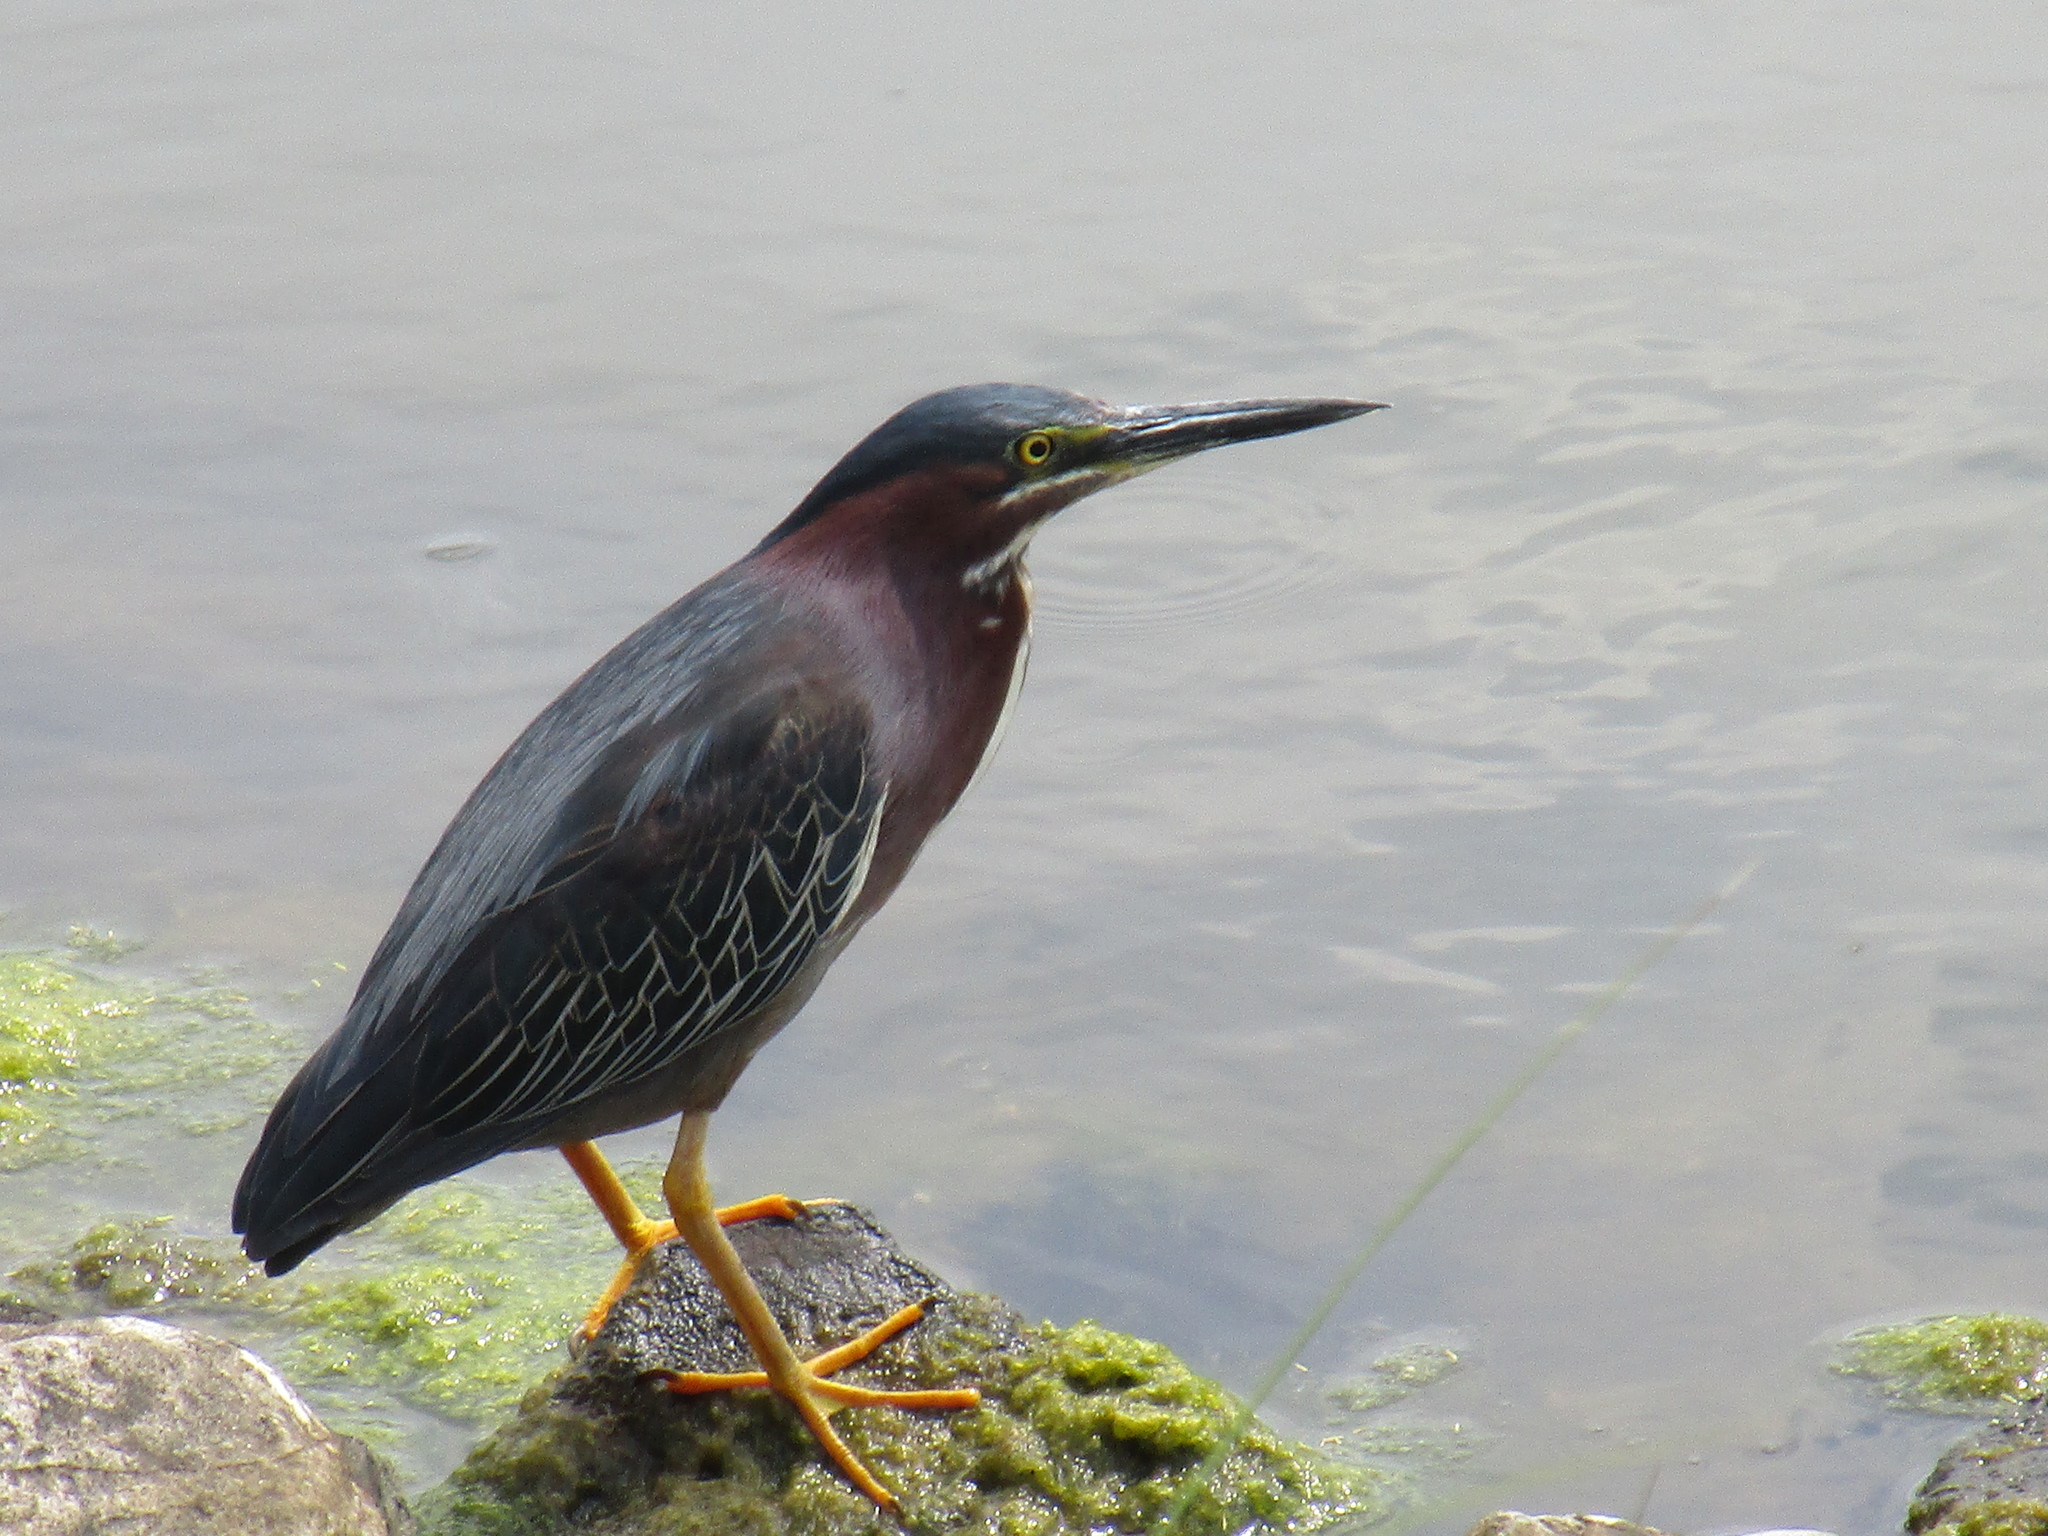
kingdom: Animalia
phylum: Chordata
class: Aves
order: Pelecaniformes
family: Ardeidae
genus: Butorides
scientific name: Butorides virescens
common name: Green heron
